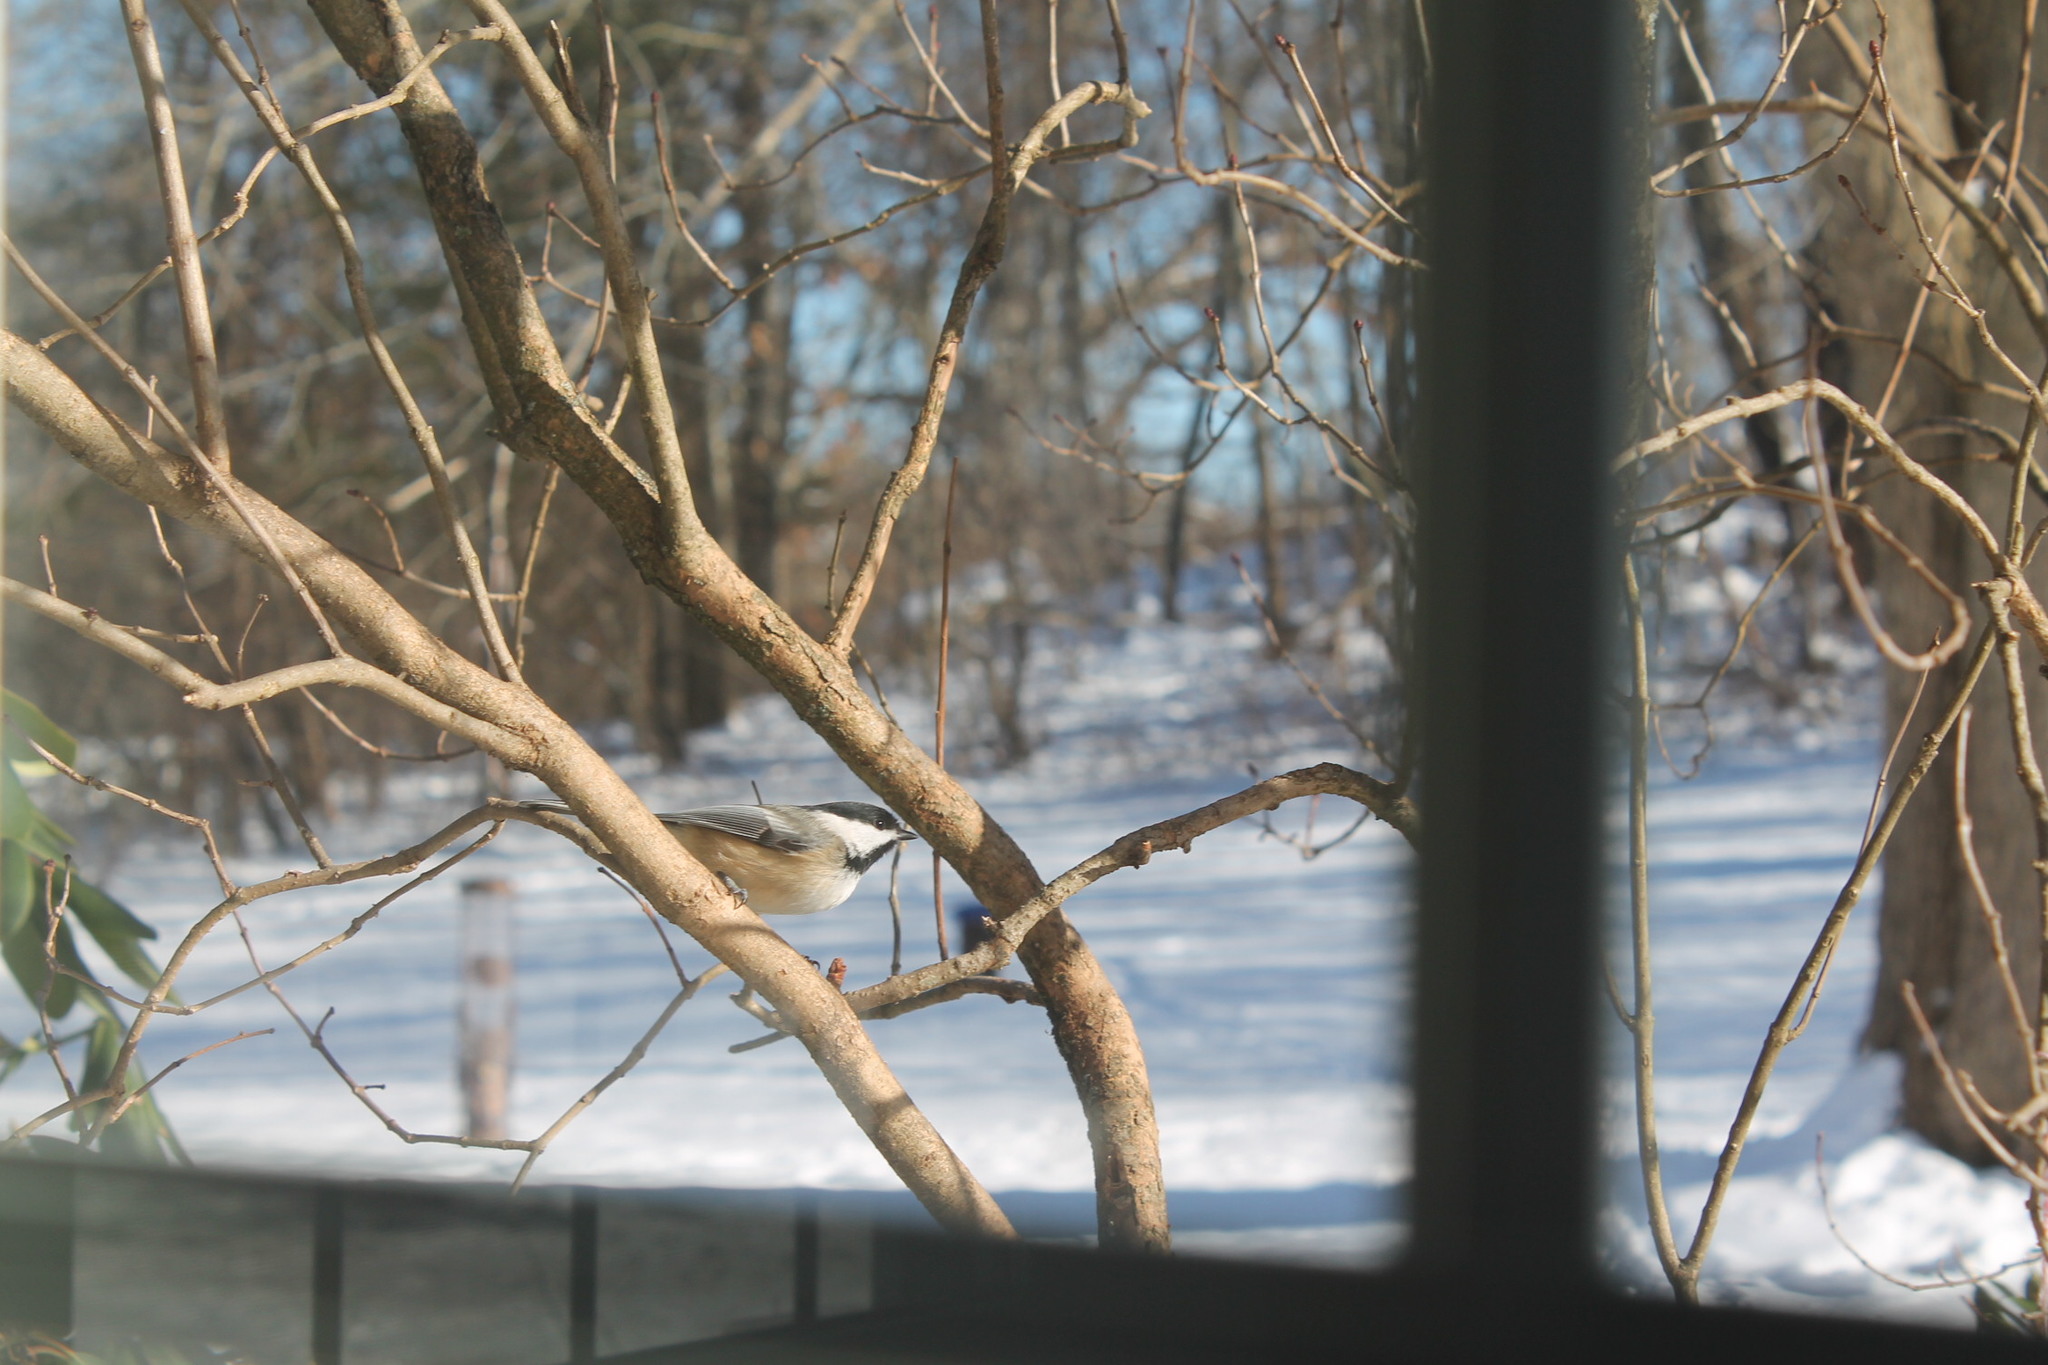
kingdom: Animalia
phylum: Chordata
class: Aves
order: Passeriformes
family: Paridae
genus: Poecile
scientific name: Poecile atricapillus
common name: Black-capped chickadee
